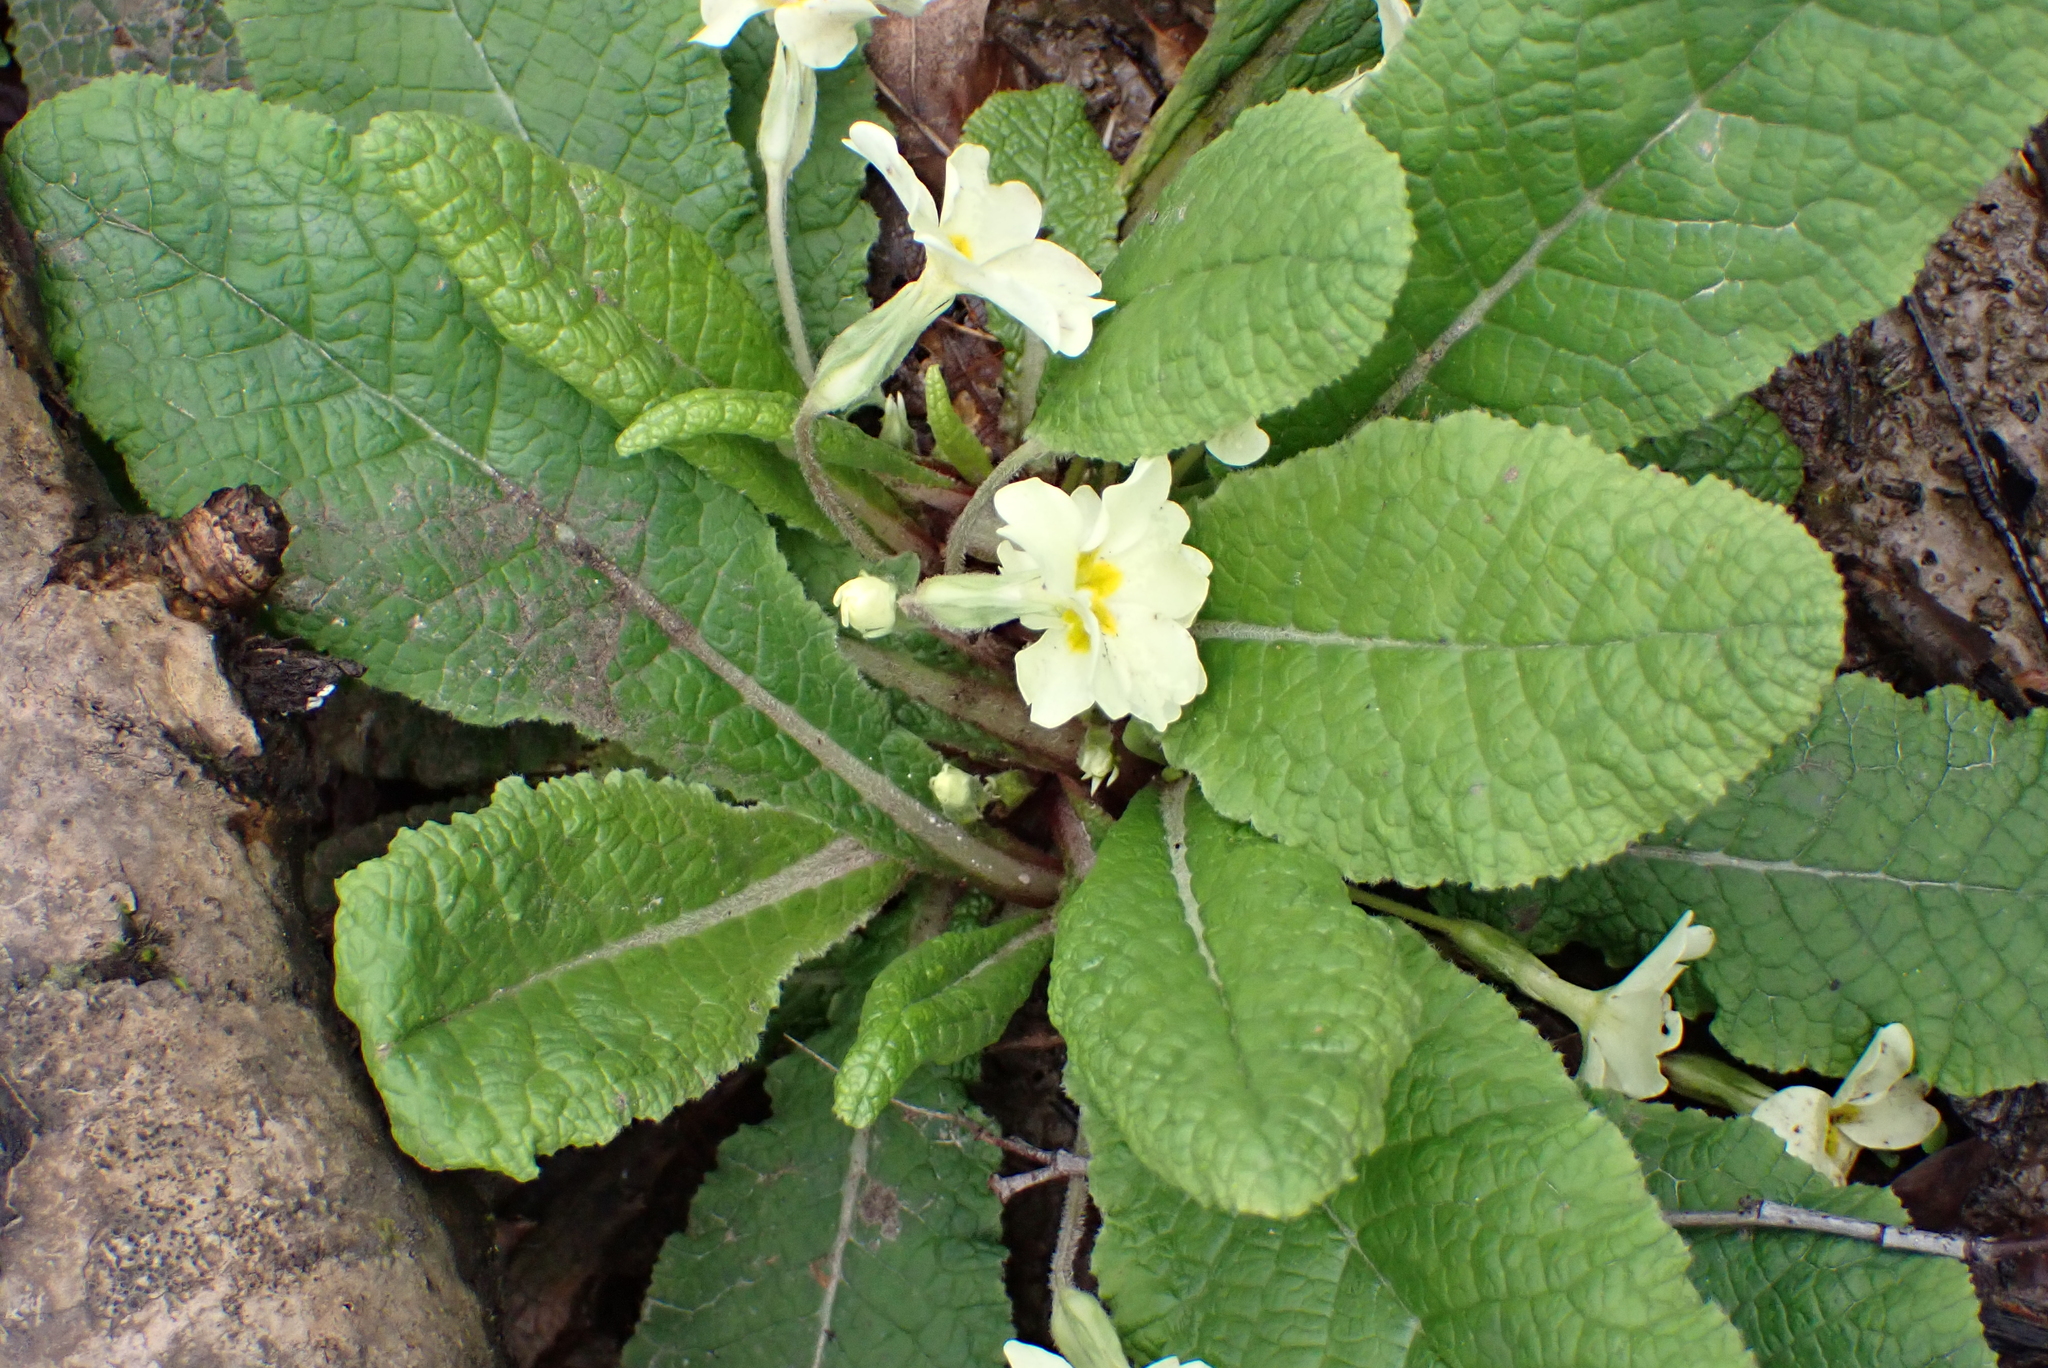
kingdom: Plantae
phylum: Tracheophyta
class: Magnoliopsida
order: Ericales
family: Primulaceae
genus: Primula
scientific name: Primula vulgaris
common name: Primrose
